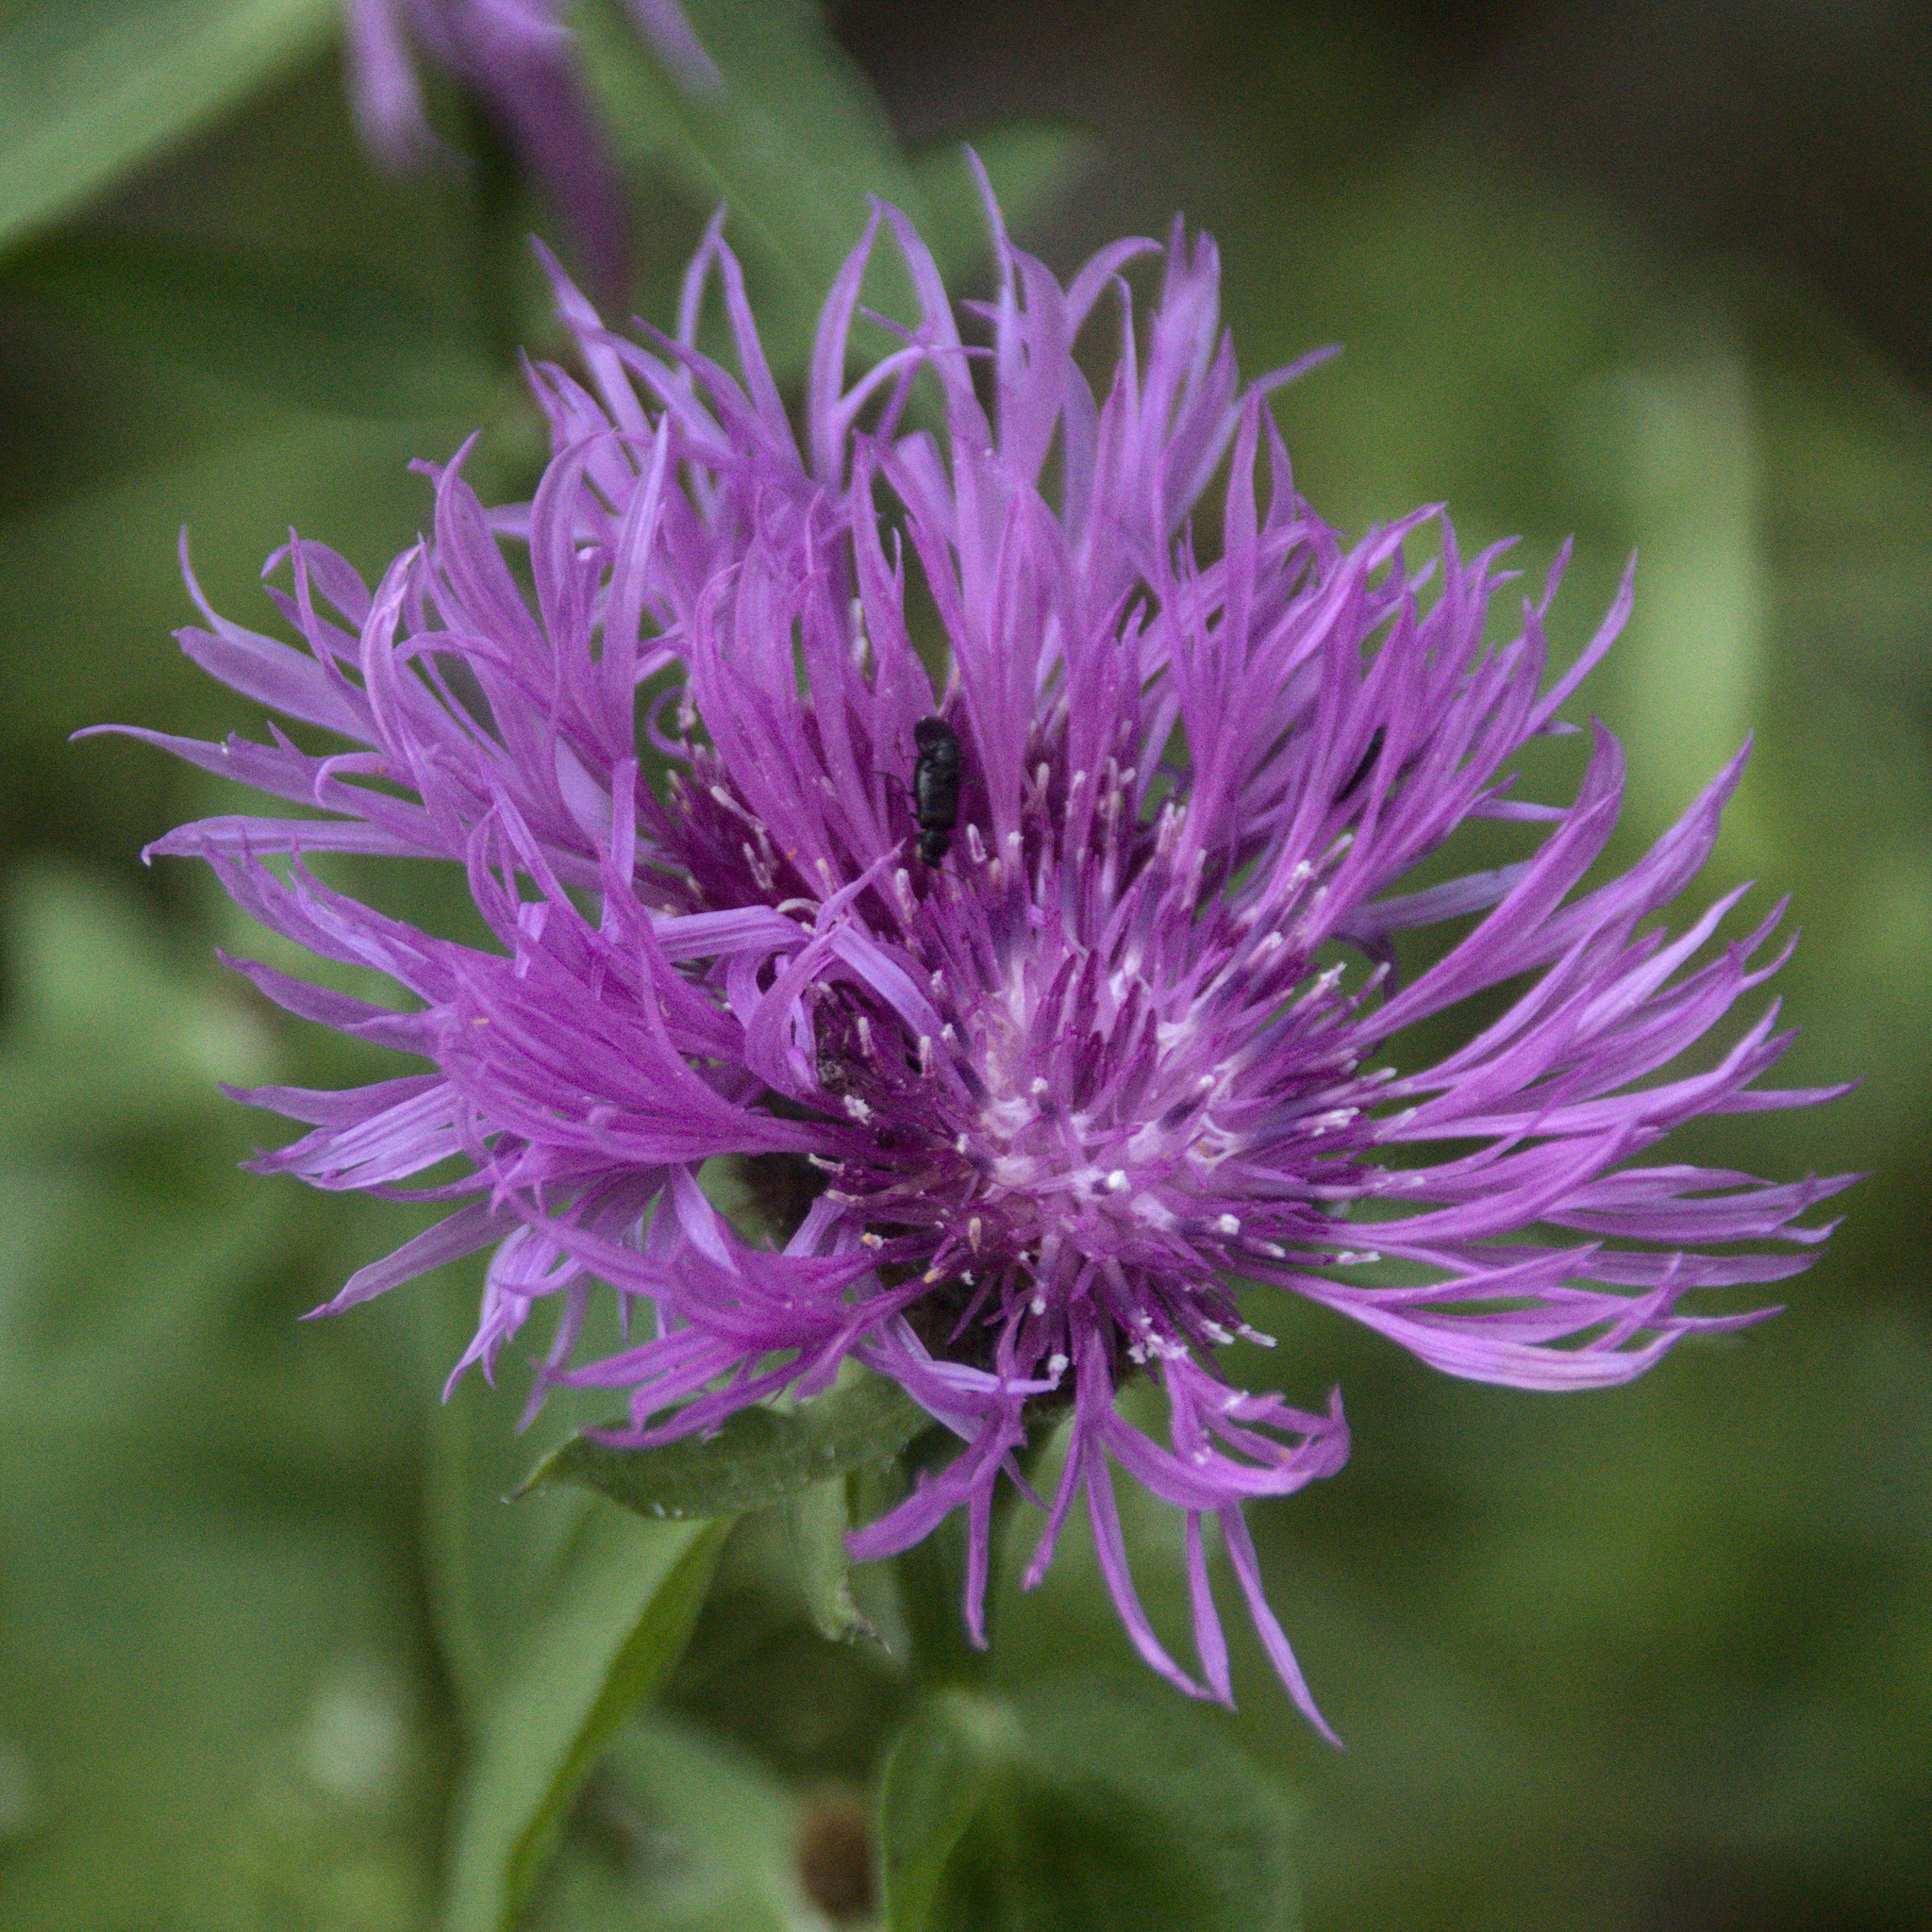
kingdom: Plantae
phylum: Tracheophyta
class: Magnoliopsida
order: Asterales
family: Asteraceae
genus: Centaurea
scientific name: Centaurea phrygia
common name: Wig knapweed
